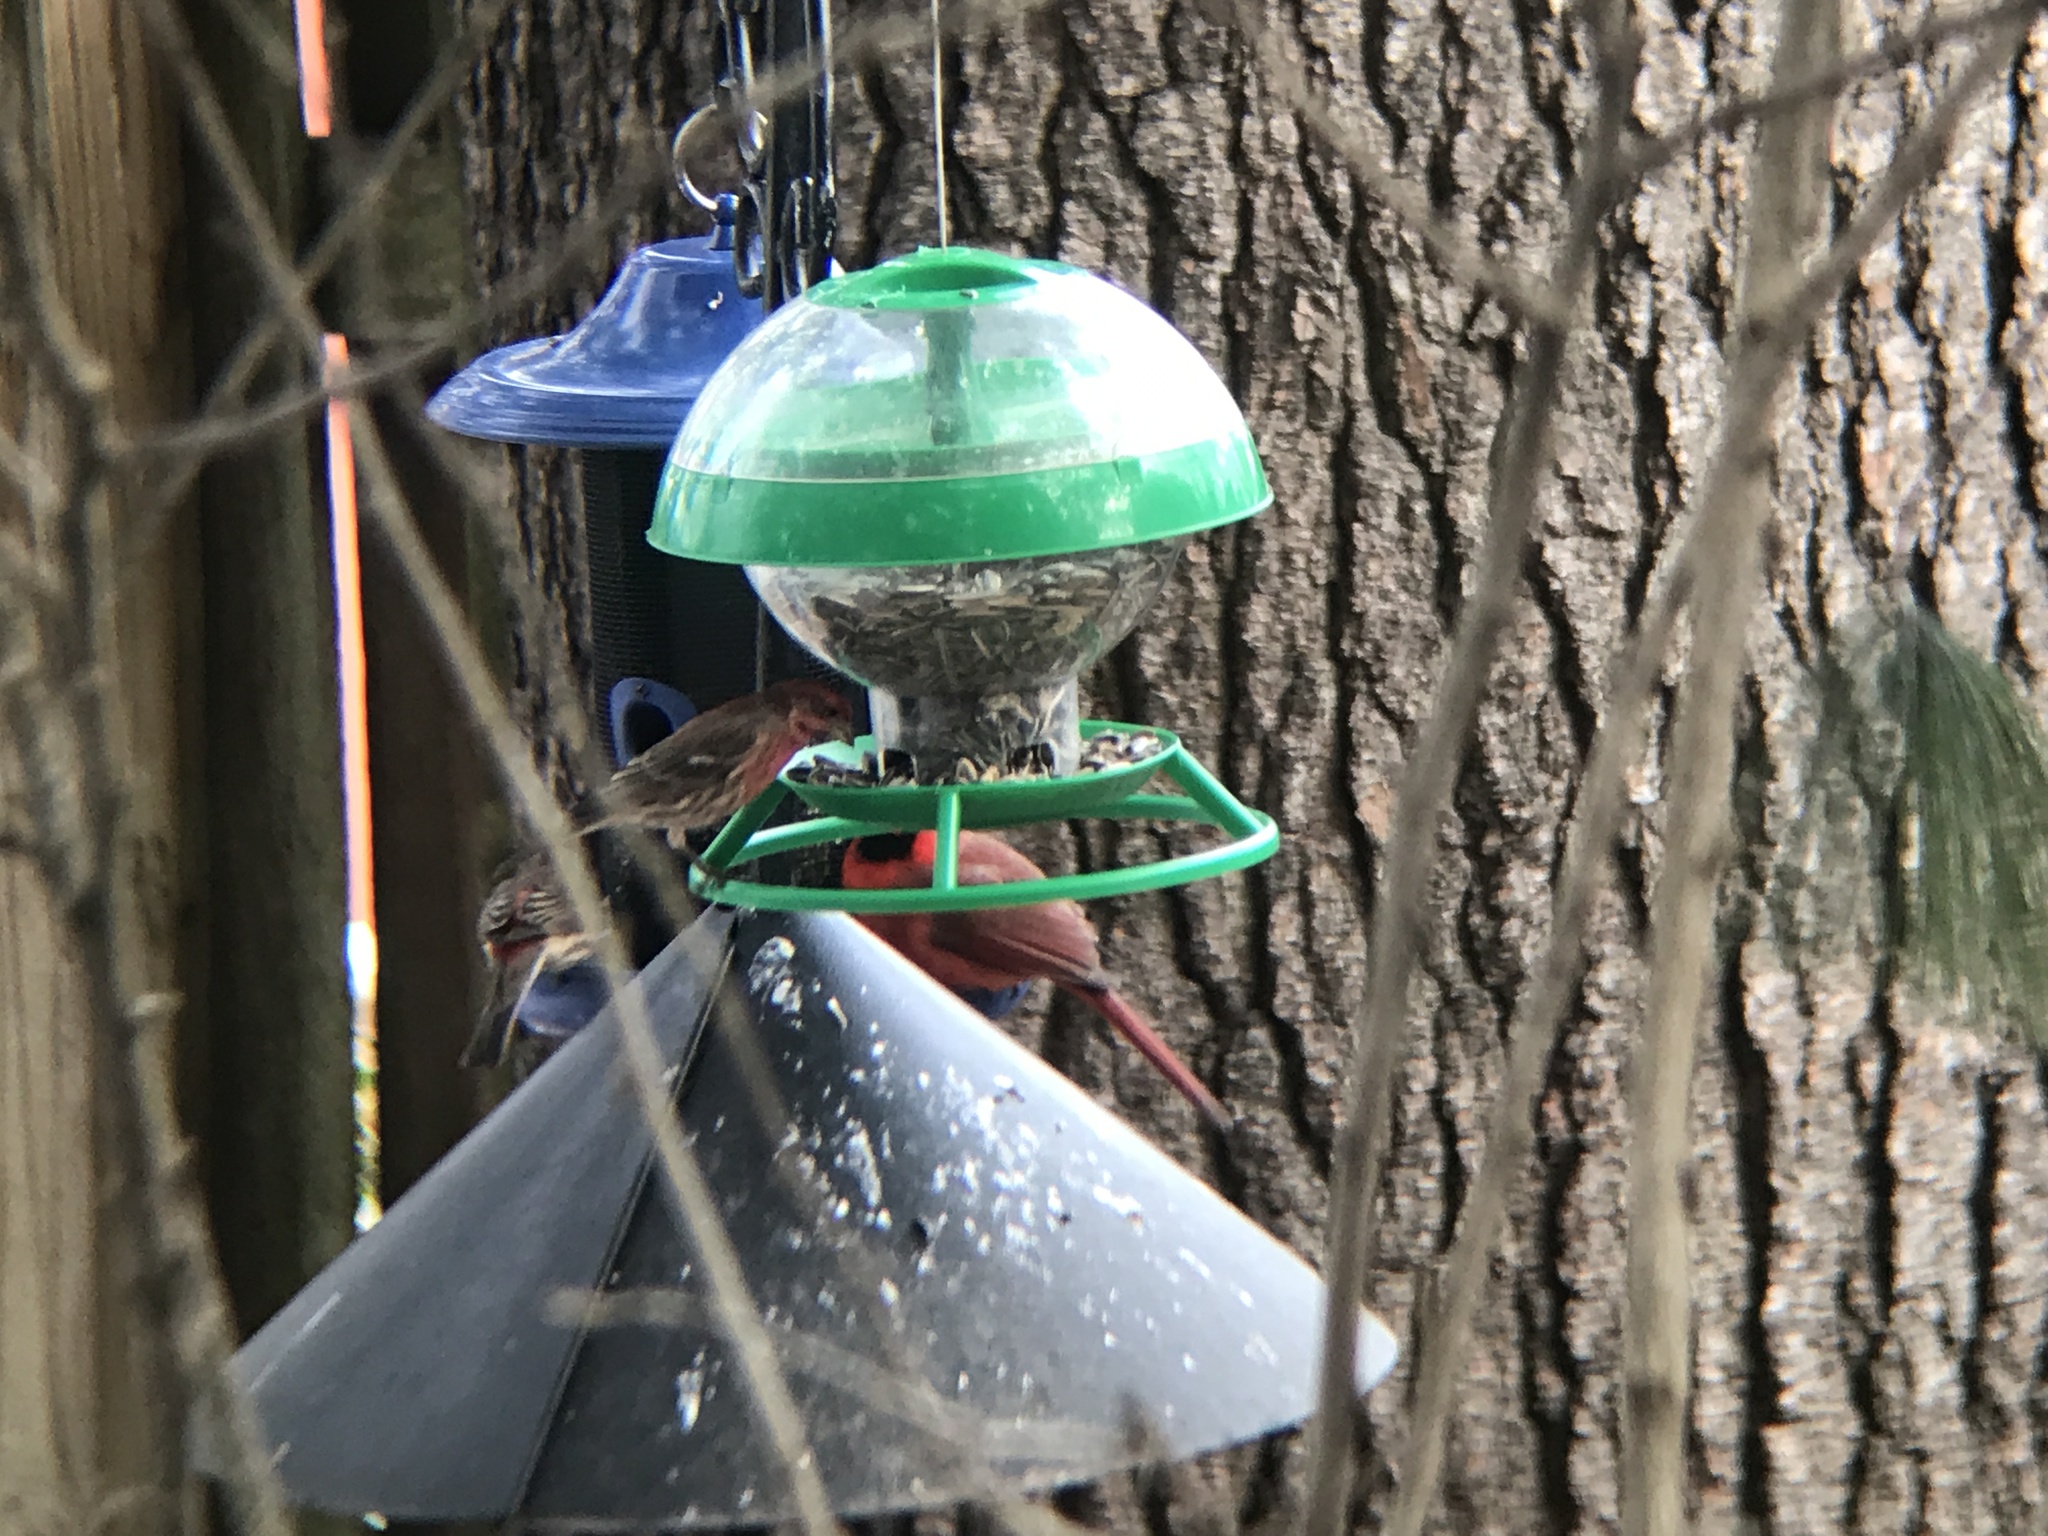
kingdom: Animalia
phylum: Chordata
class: Aves
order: Passeriformes
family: Cardinalidae
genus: Cardinalis
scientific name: Cardinalis cardinalis
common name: Northern cardinal
